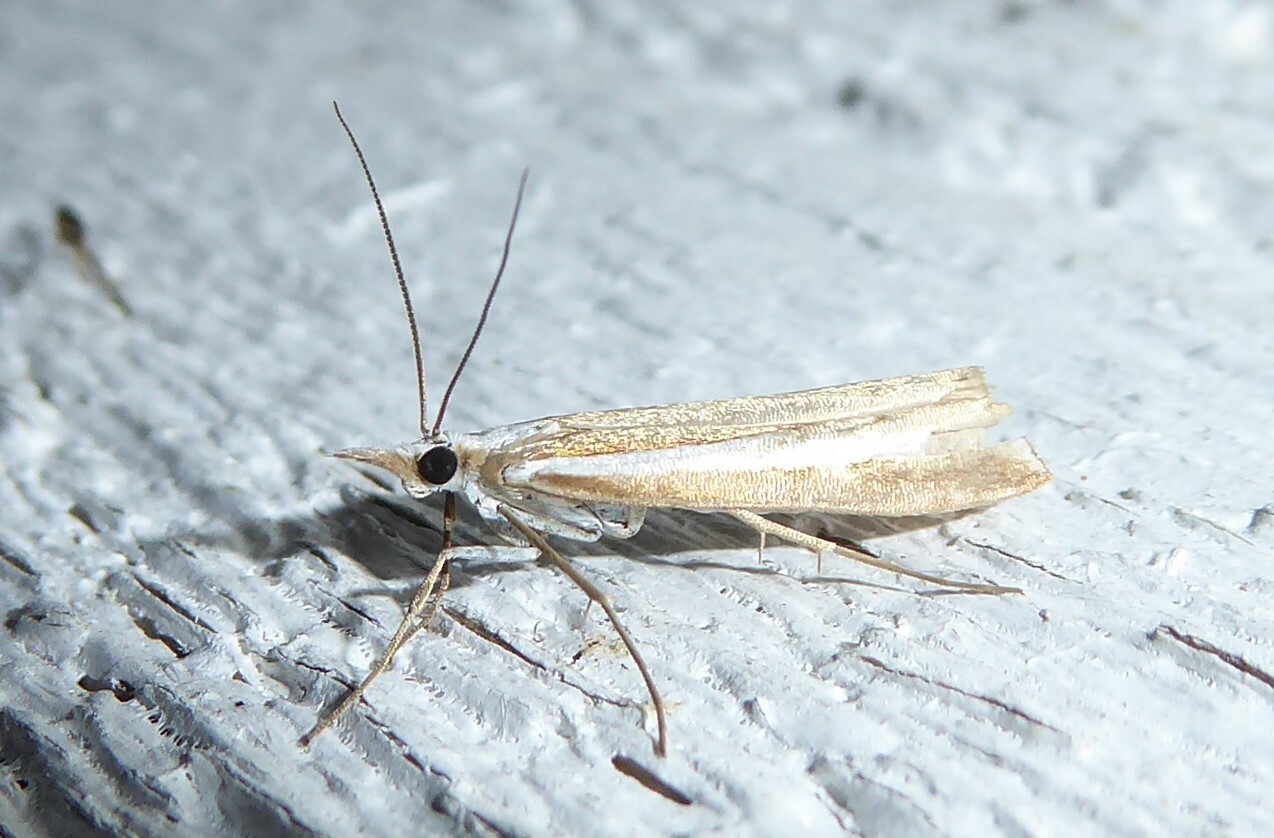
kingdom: Animalia
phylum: Arthropoda
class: Insecta
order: Lepidoptera
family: Crambidae
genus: Orocrambus
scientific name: Orocrambus vittellus
